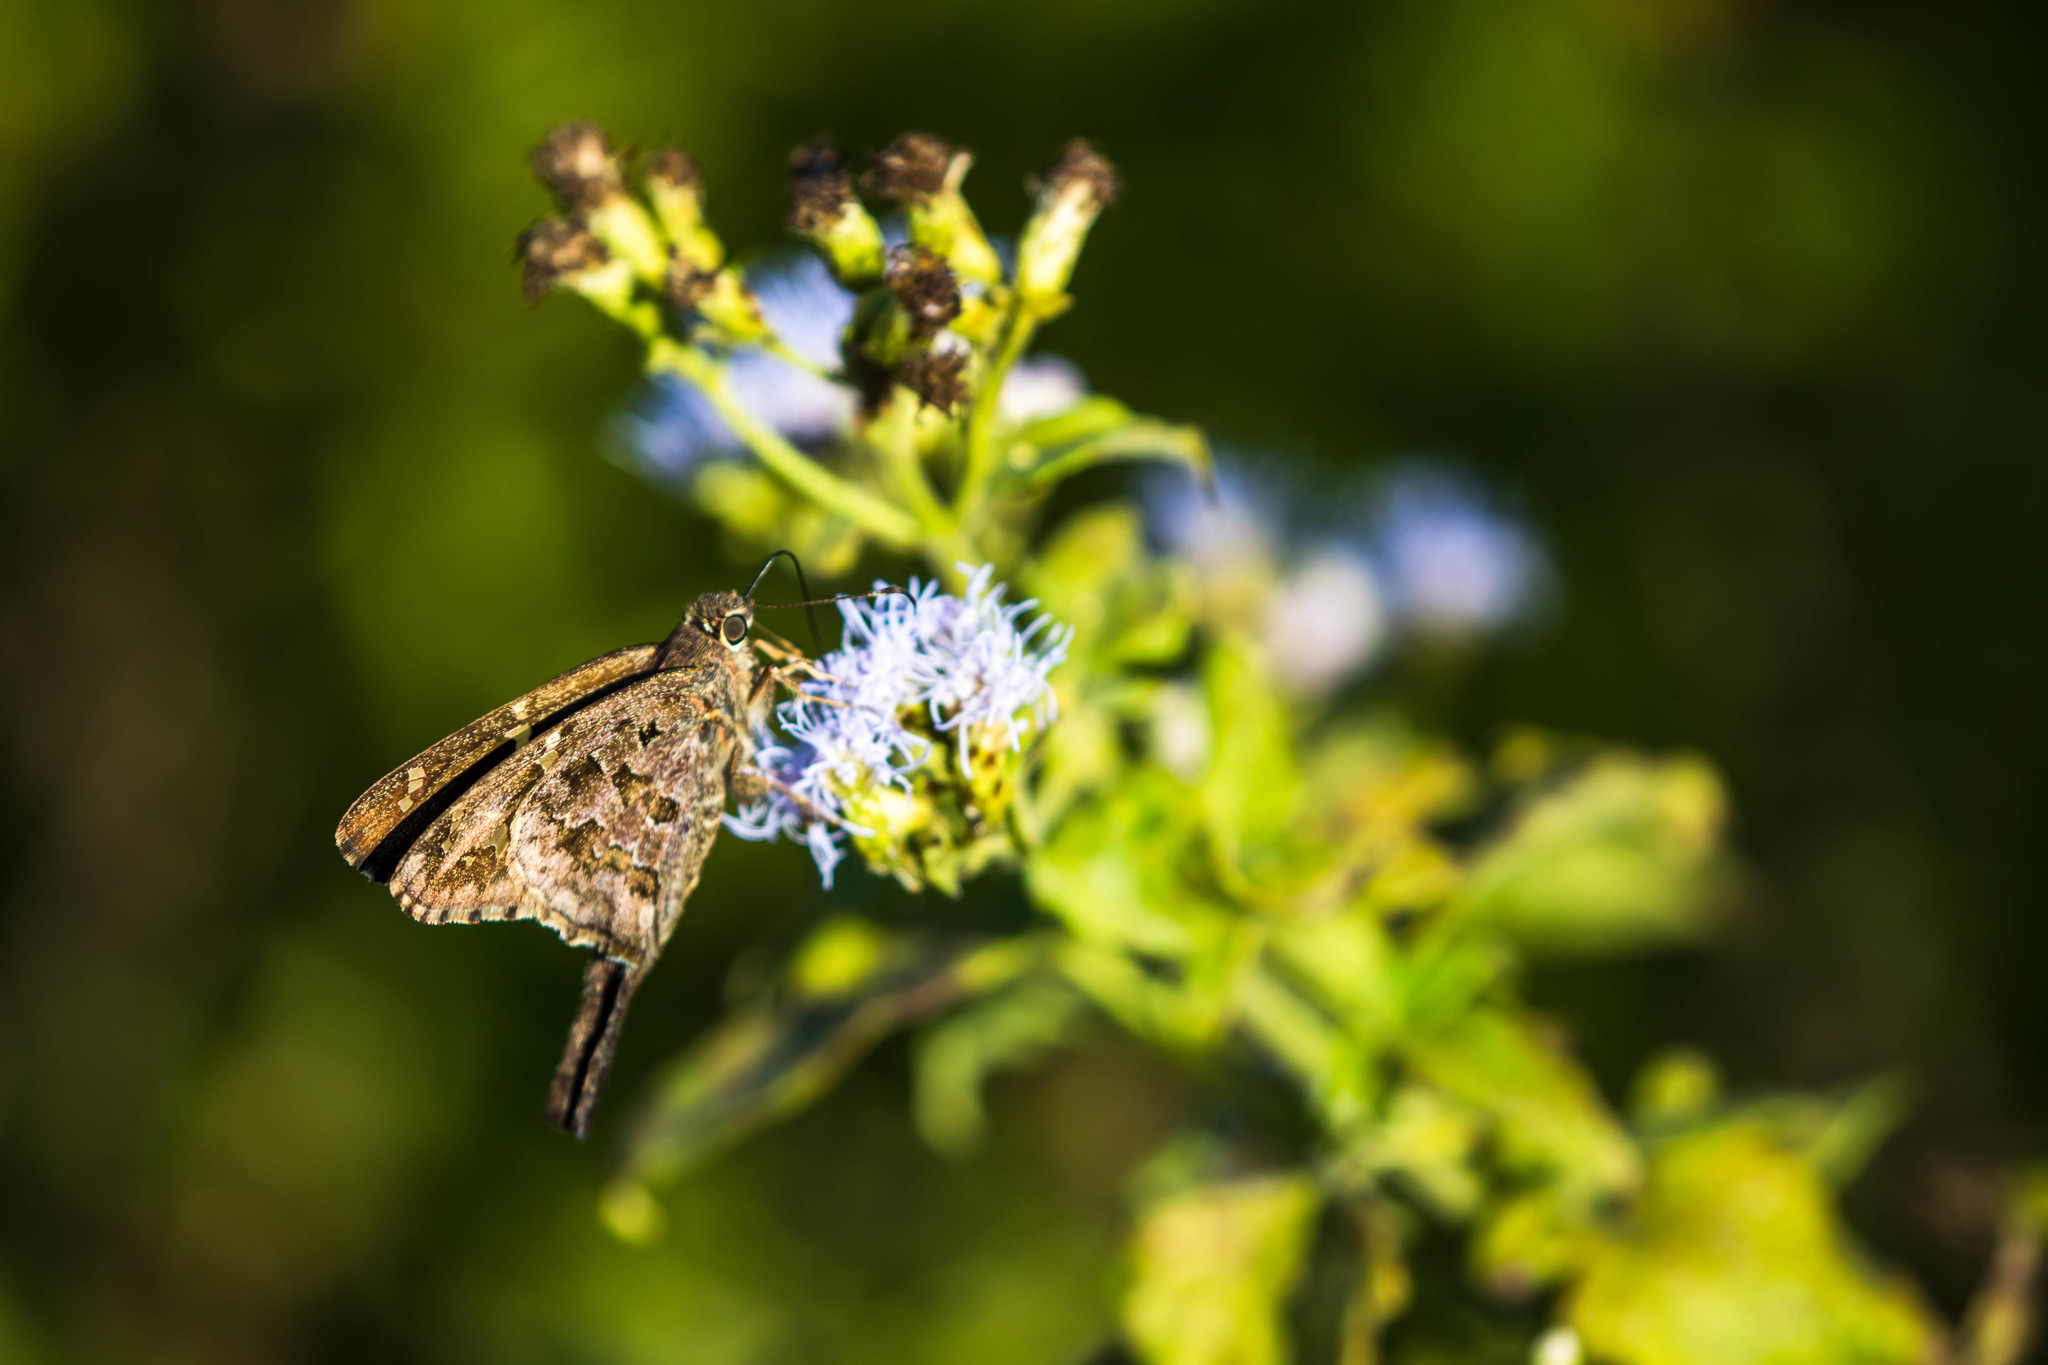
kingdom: Animalia
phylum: Arthropoda
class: Insecta
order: Lepidoptera
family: Hesperiidae
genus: Thorybes
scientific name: Thorybes
